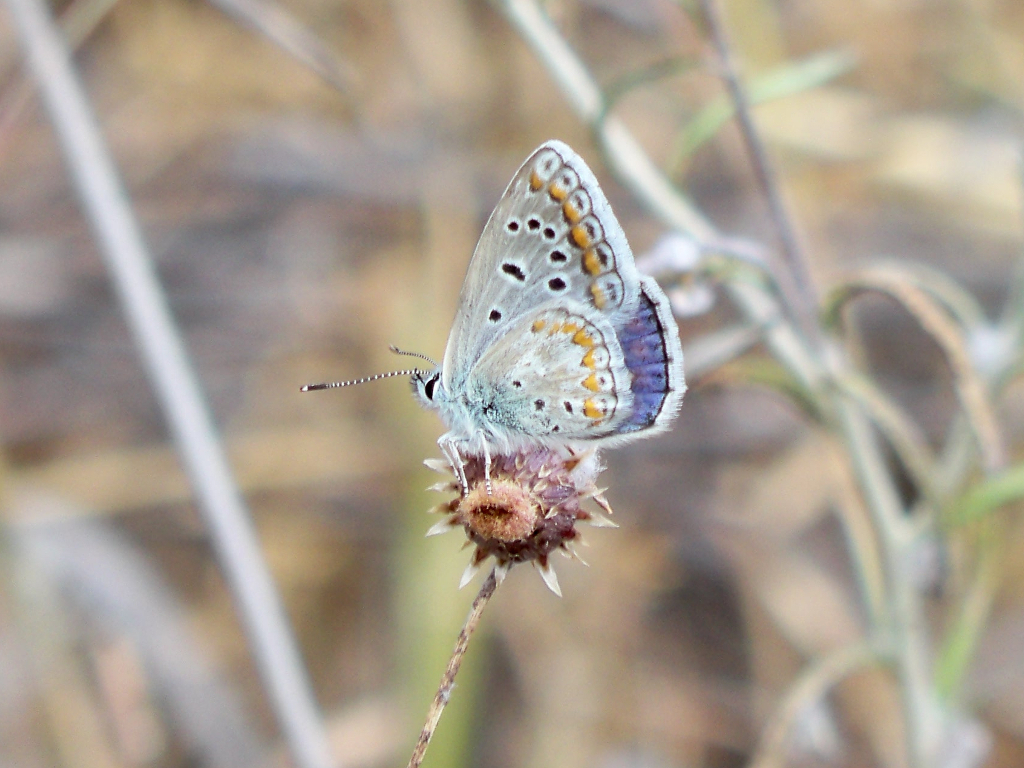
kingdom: Animalia
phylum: Arthropoda
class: Insecta
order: Lepidoptera
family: Lycaenidae
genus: Polyommatus
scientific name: Polyommatus celina
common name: Austaut's blue
